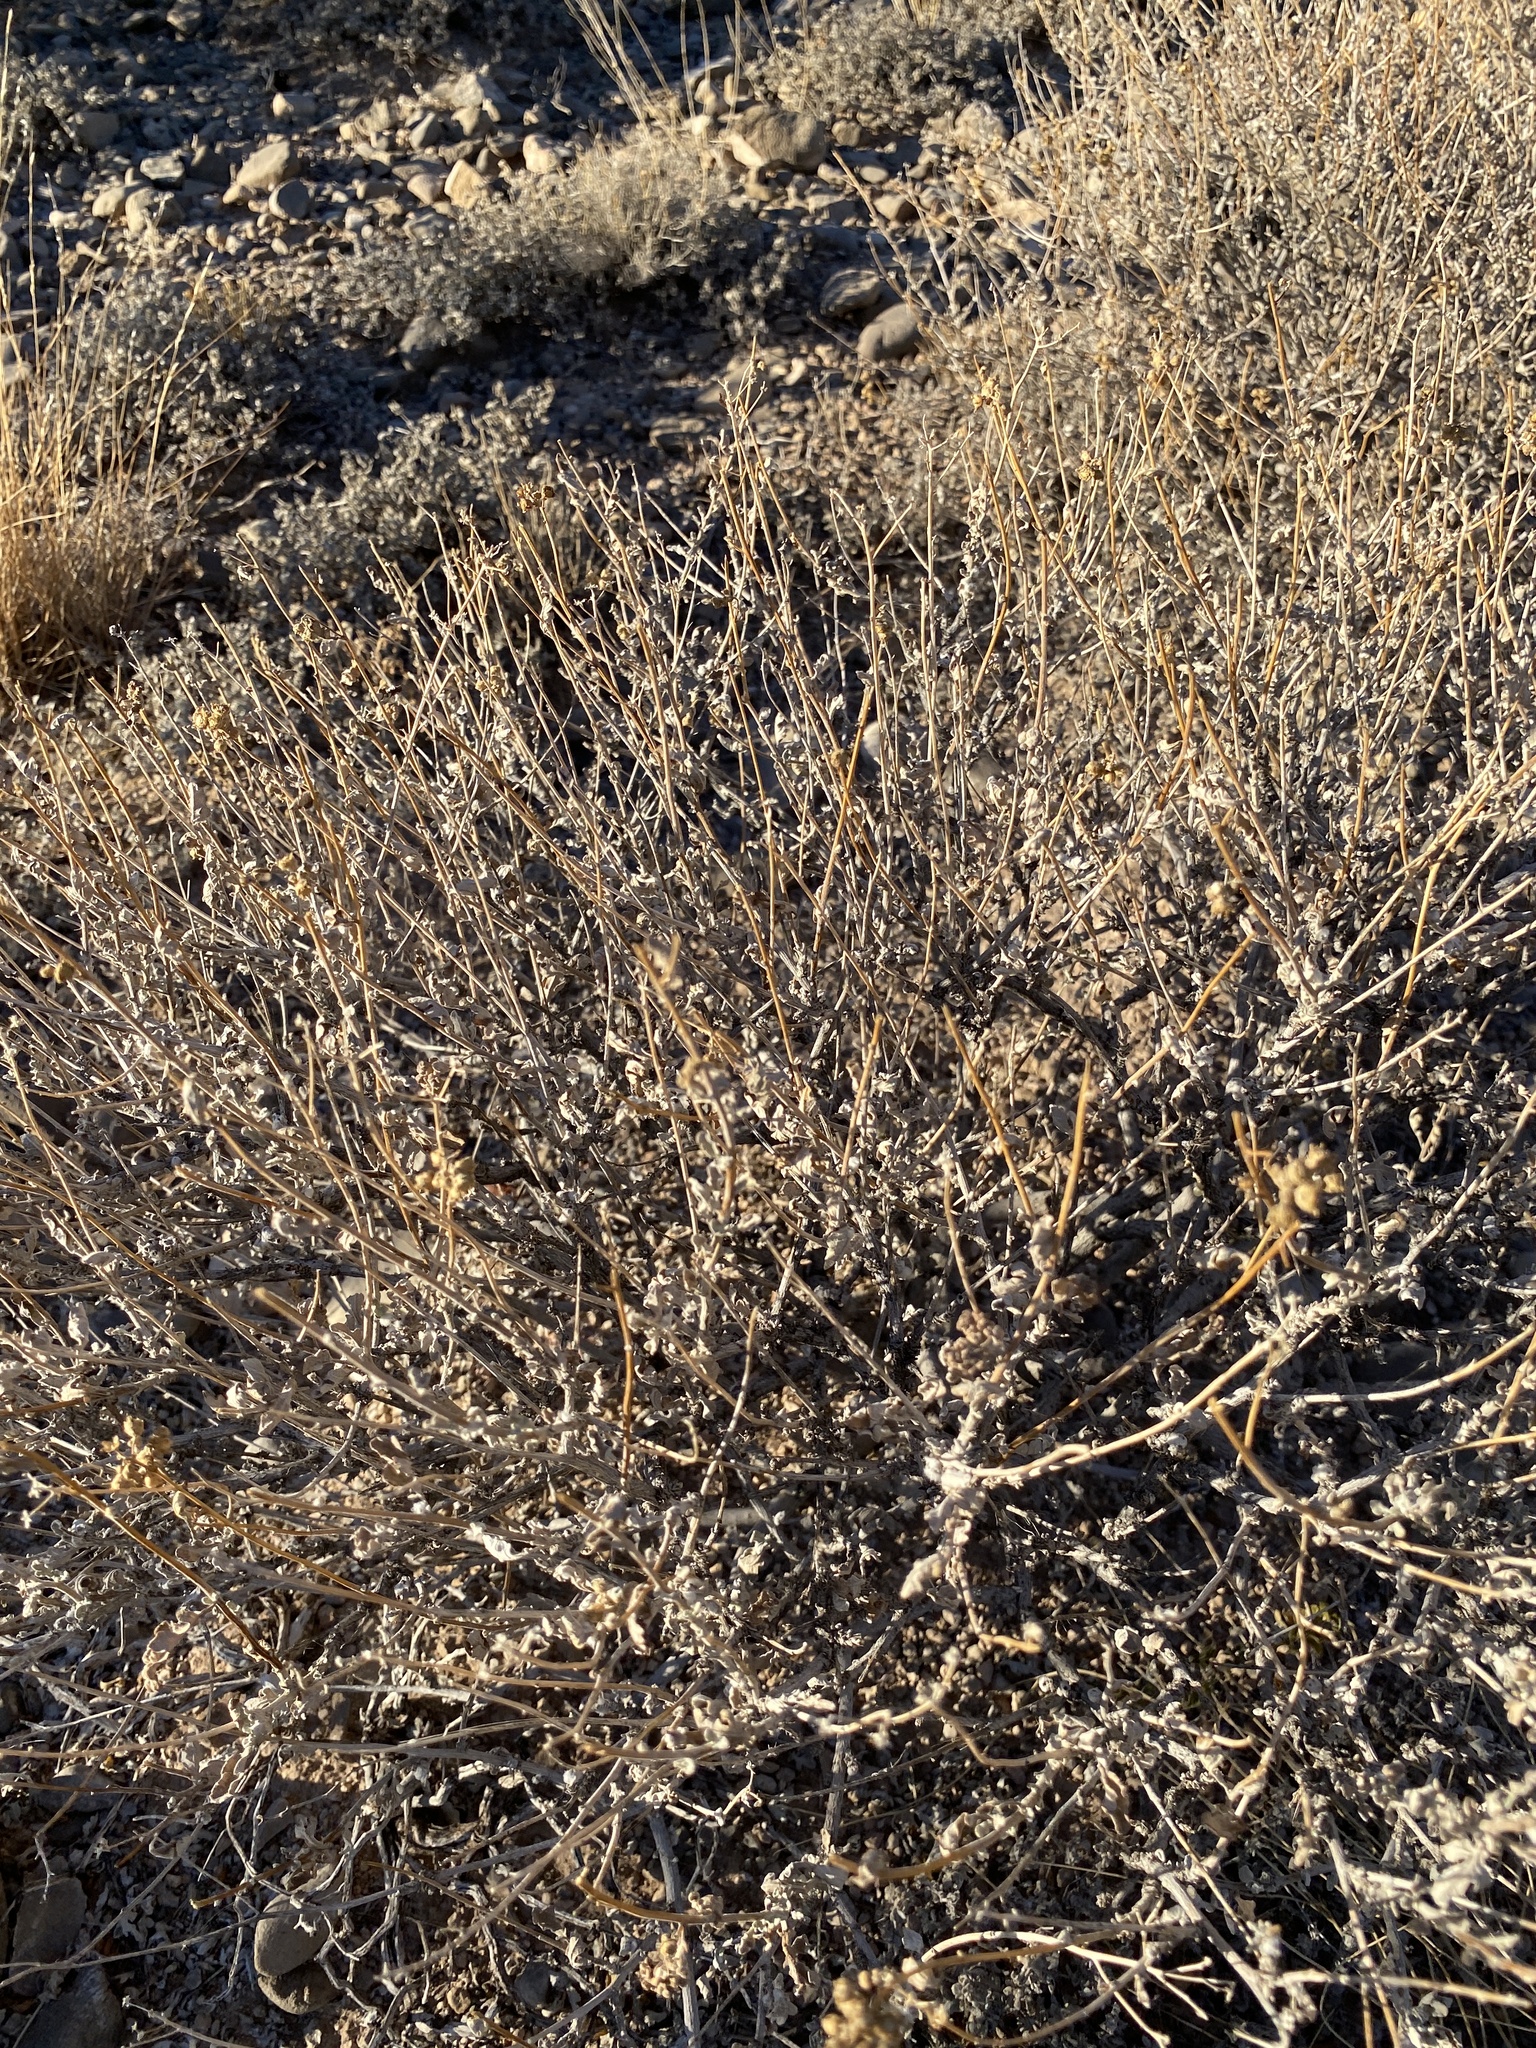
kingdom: Plantae
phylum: Tracheophyta
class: Magnoliopsida
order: Asterales
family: Asteraceae
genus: Parthenium
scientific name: Parthenium incanum
